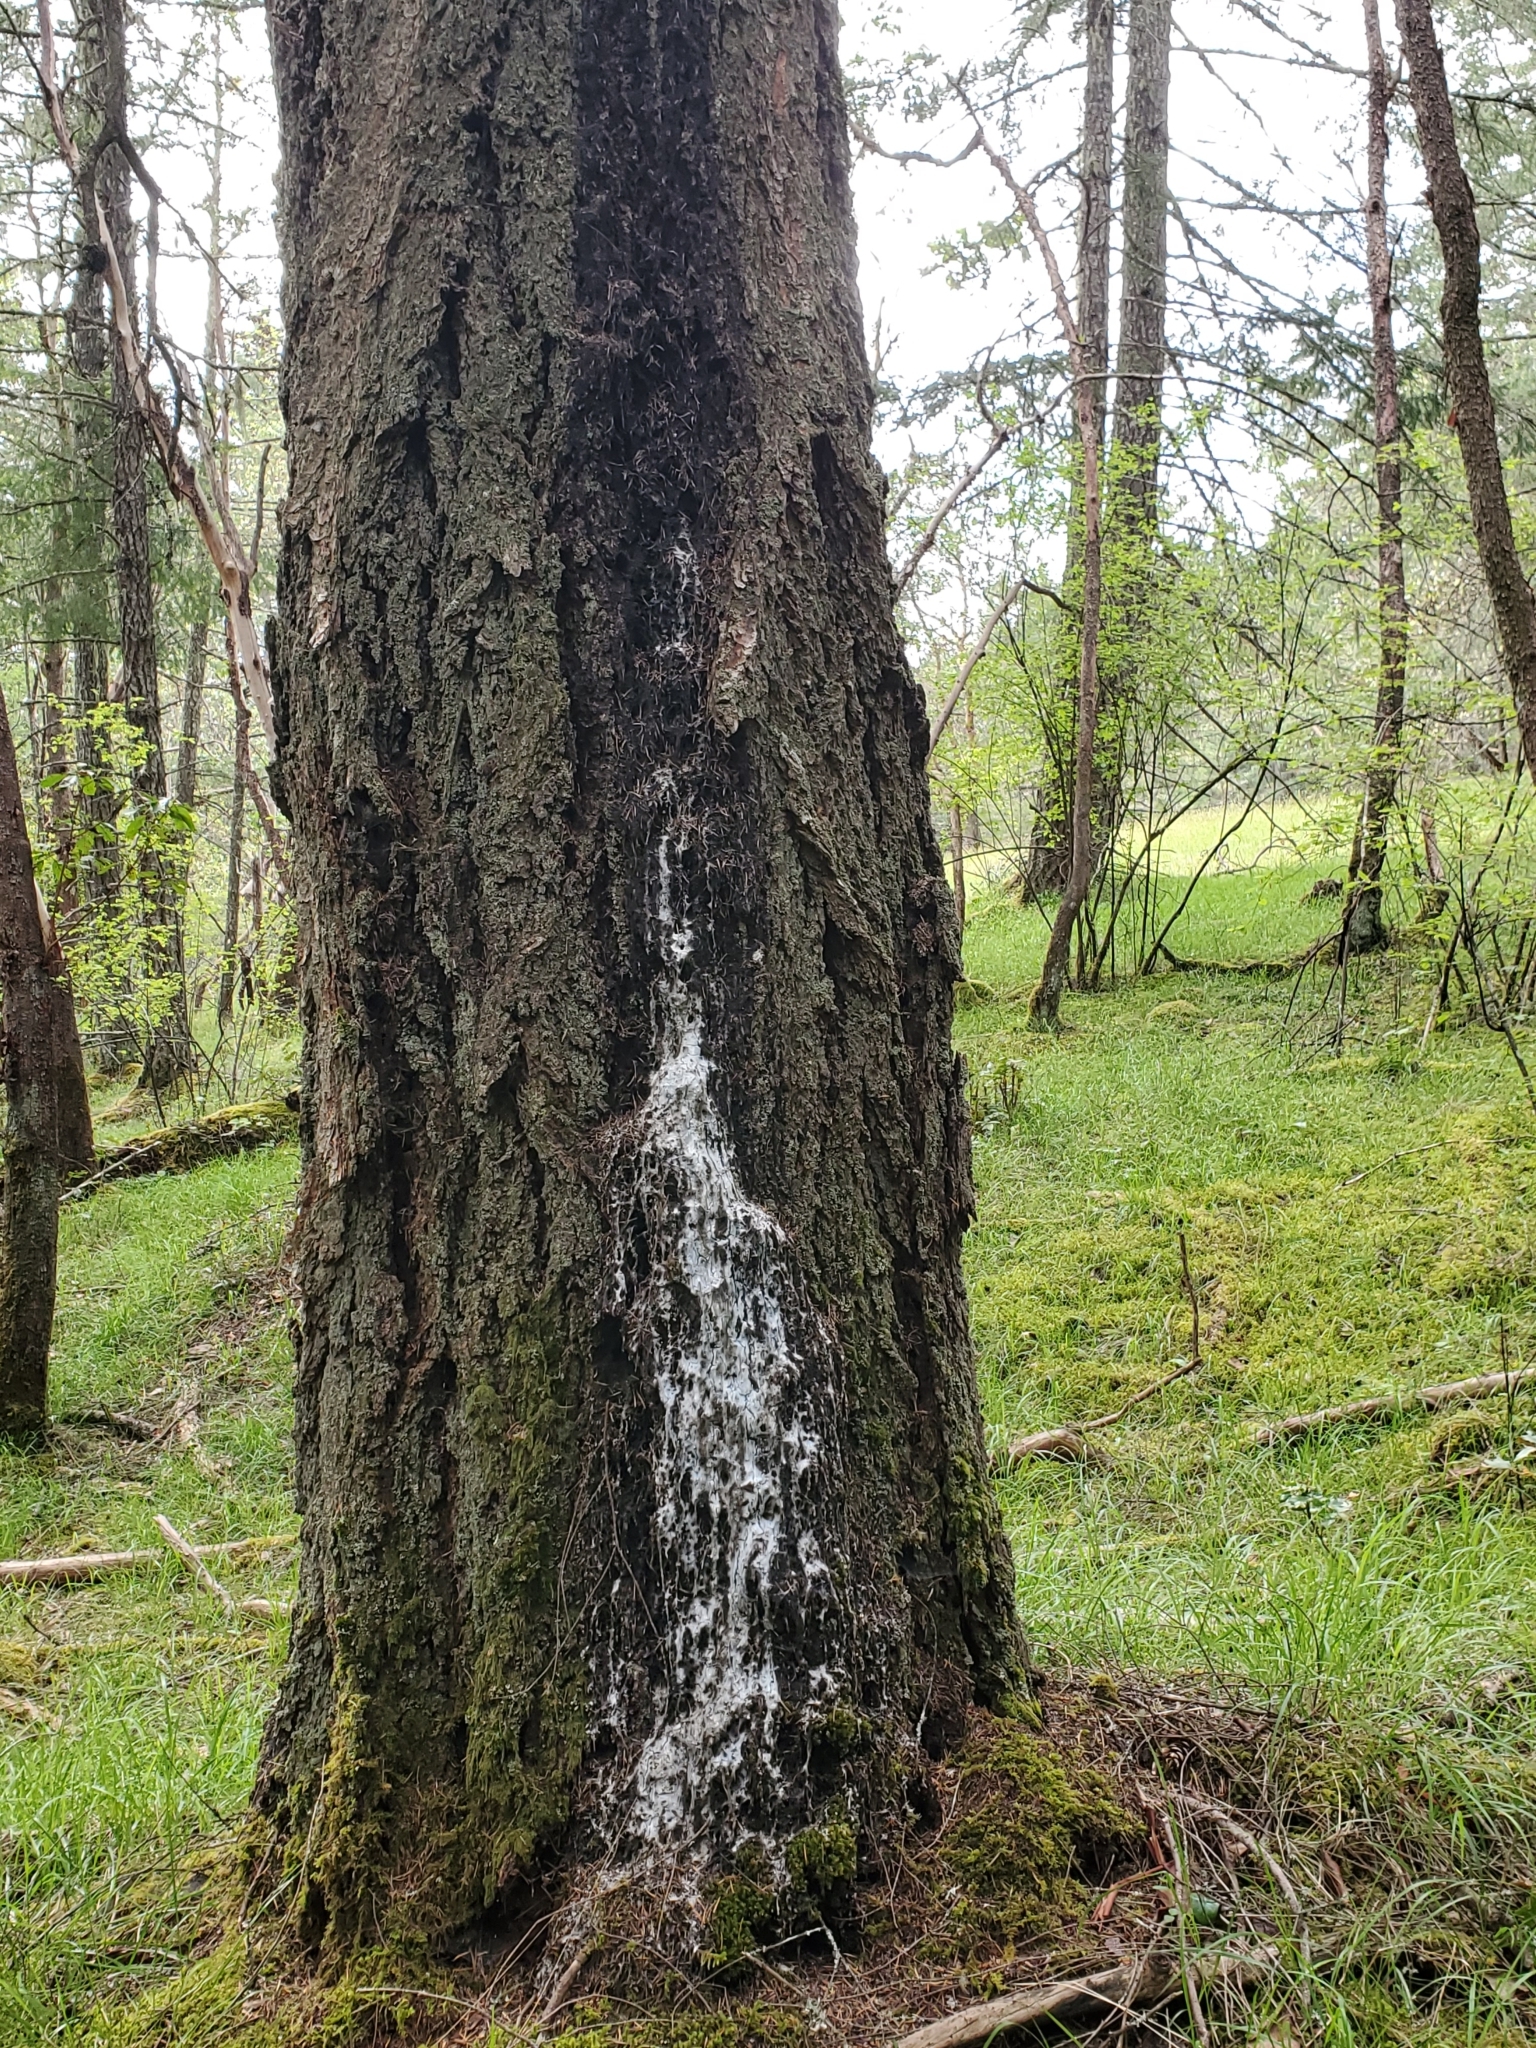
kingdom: Plantae
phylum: Tracheophyta
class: Pinopsida
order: Pinales
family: Pinaceae
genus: Pseudotsuga
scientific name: Pseudotsuga menziesii
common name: Douglas fir
